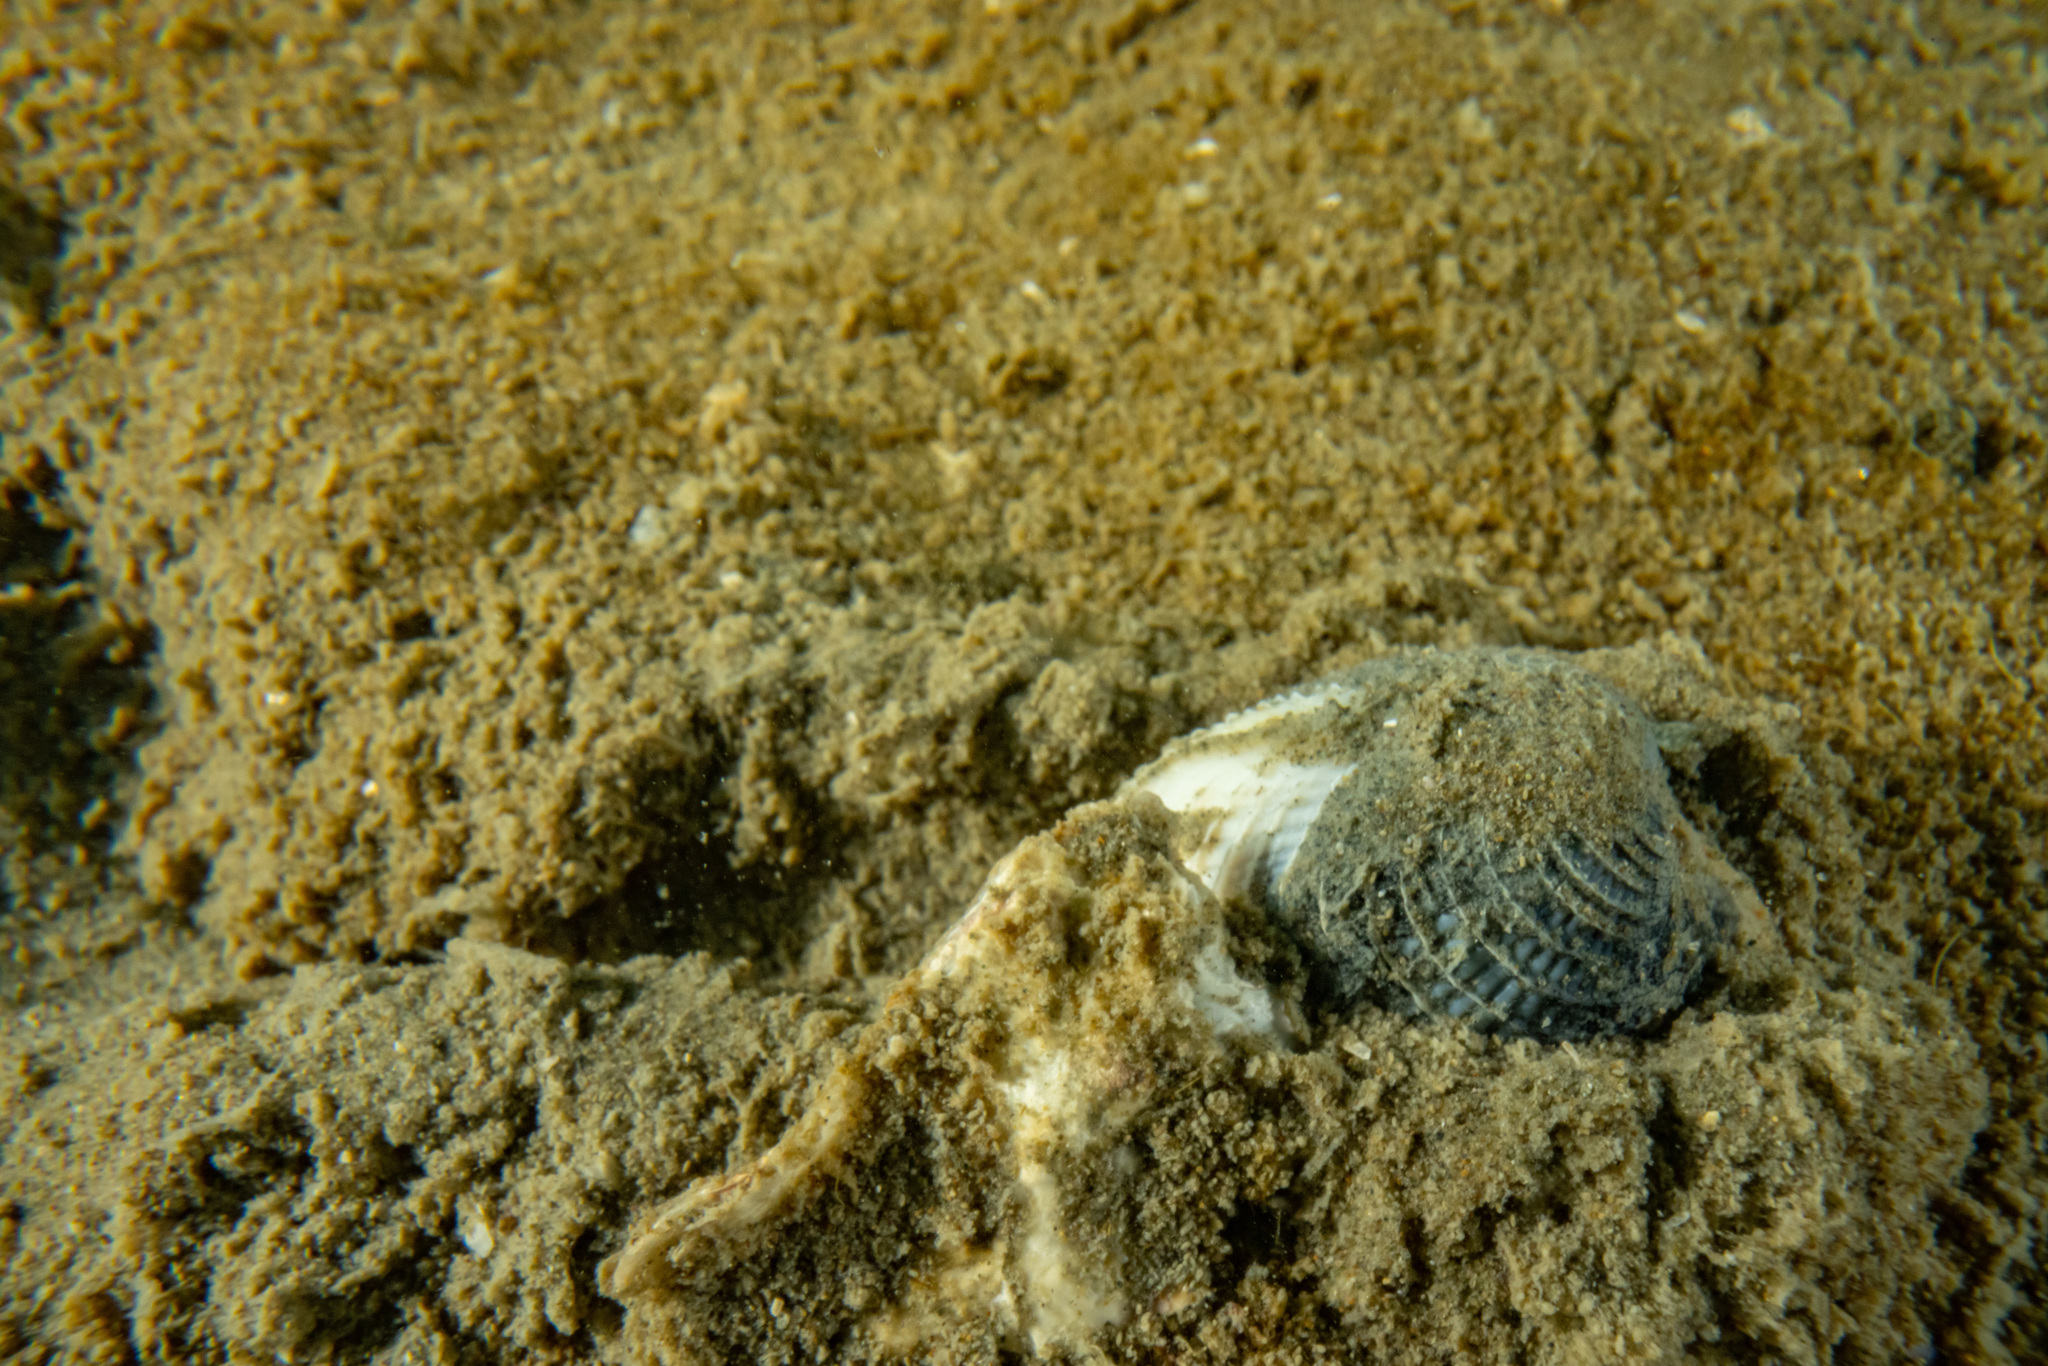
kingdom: Animalia
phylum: Mollusca
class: Bivalvia
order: Venerida
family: Veneridae
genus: Austrovenus
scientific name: Austrovenus stutchburyi
